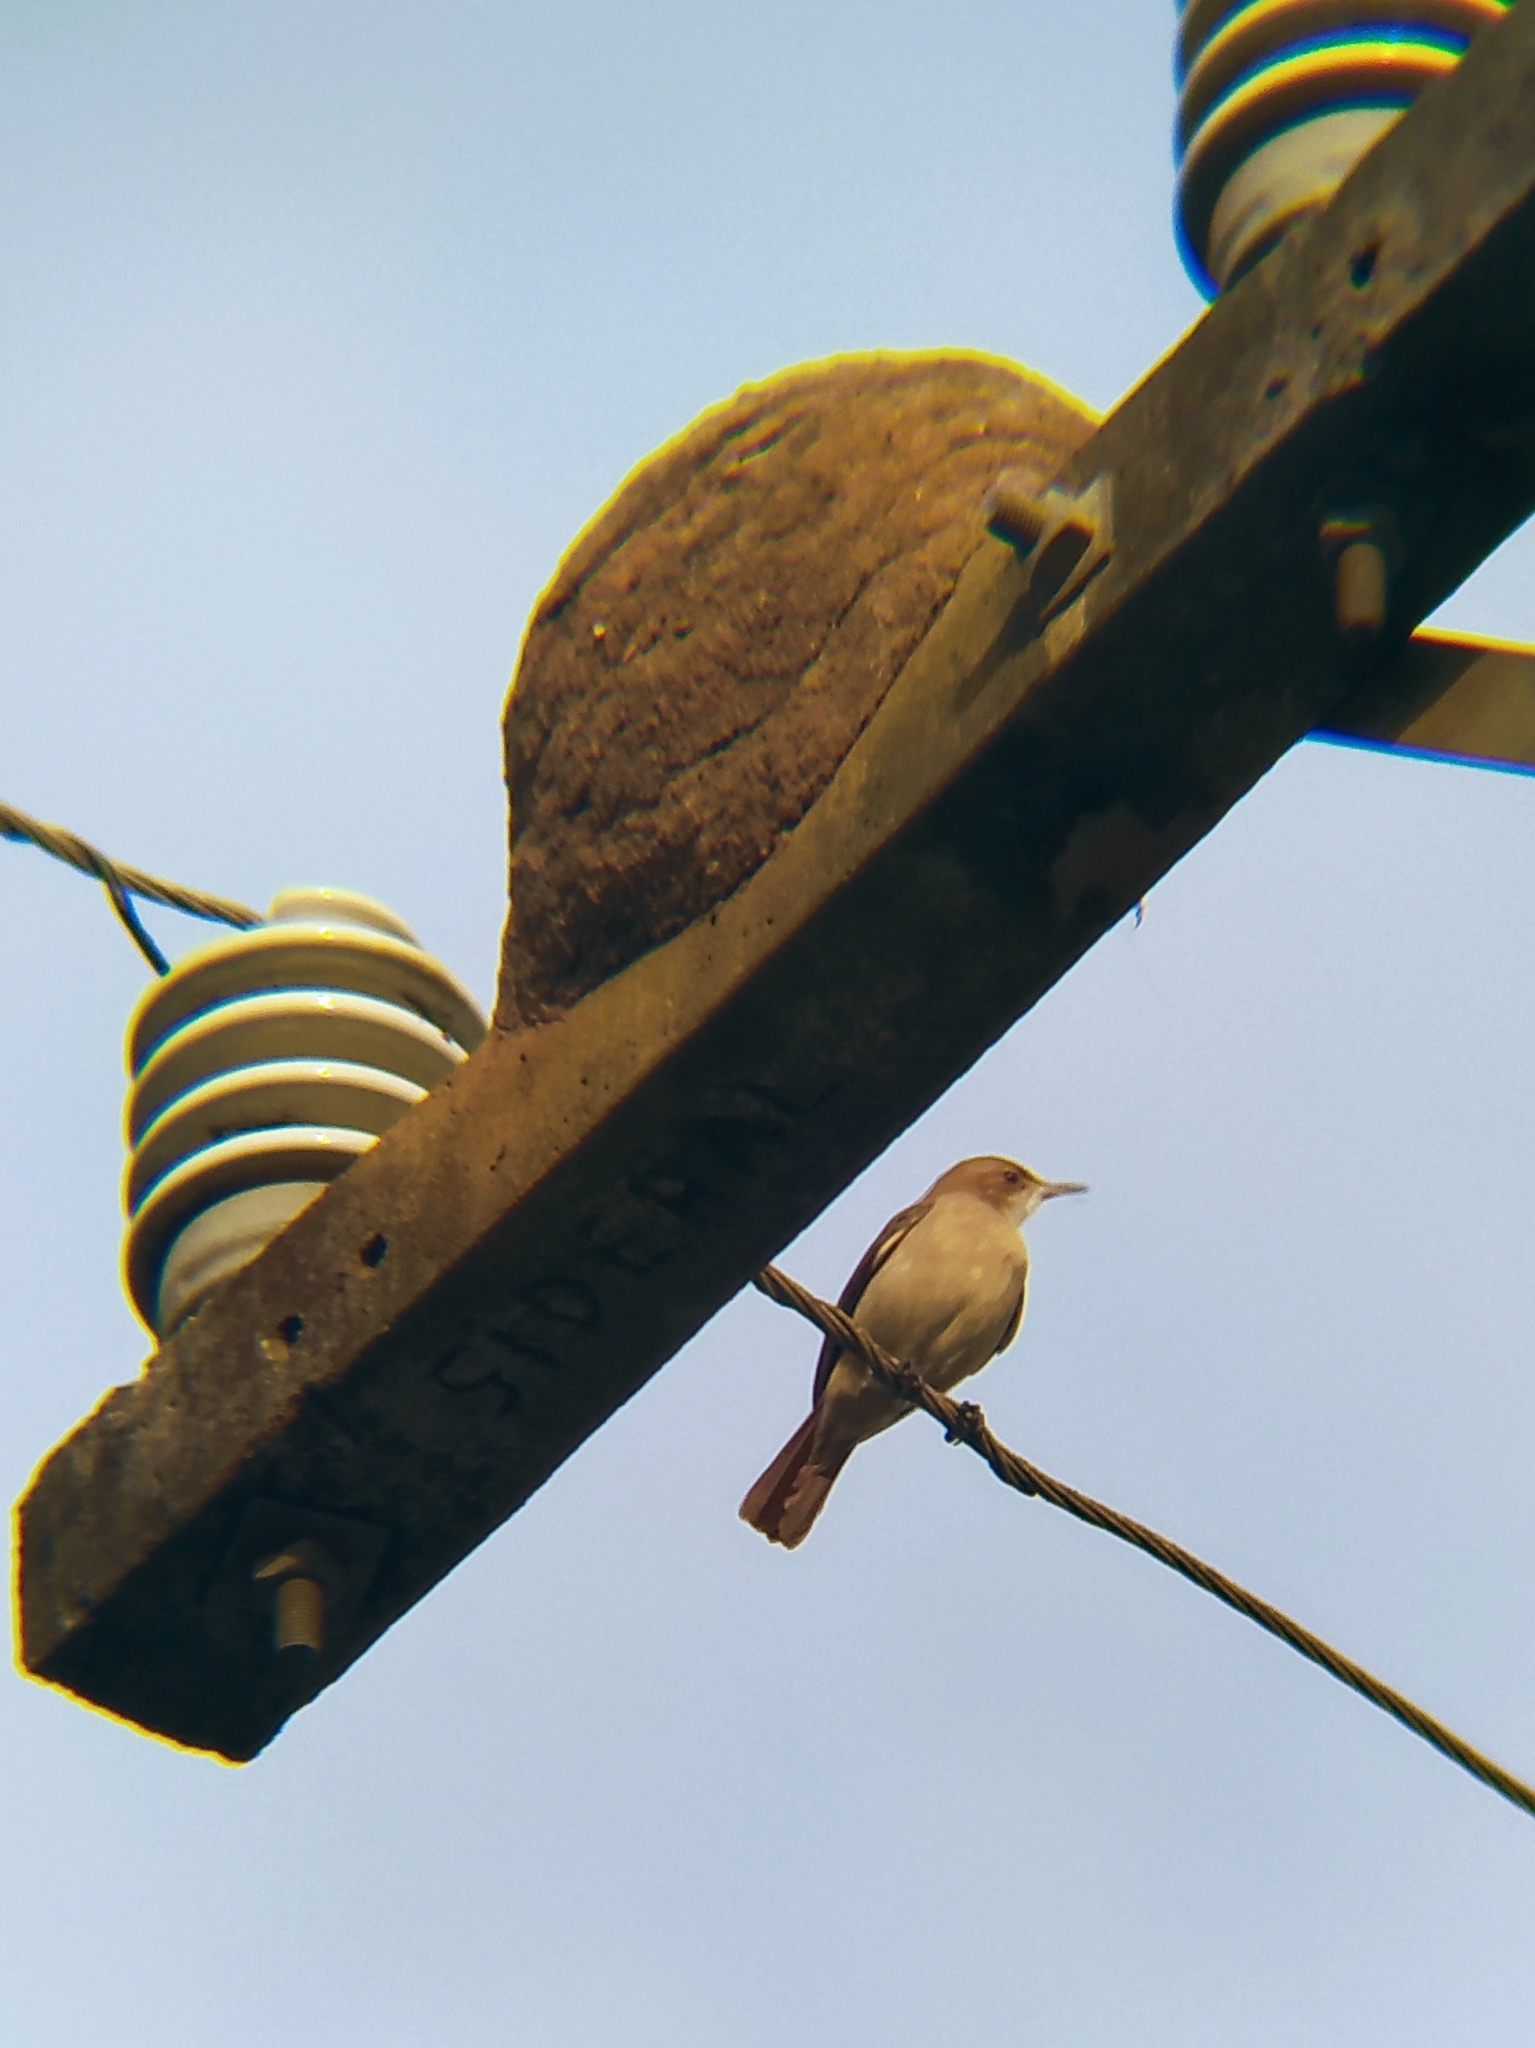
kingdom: Animalia
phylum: Chordata
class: Aves
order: Passeriformes
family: Furnariidae
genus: Furnarius
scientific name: Furnarius rufus
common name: Rufous hornero
